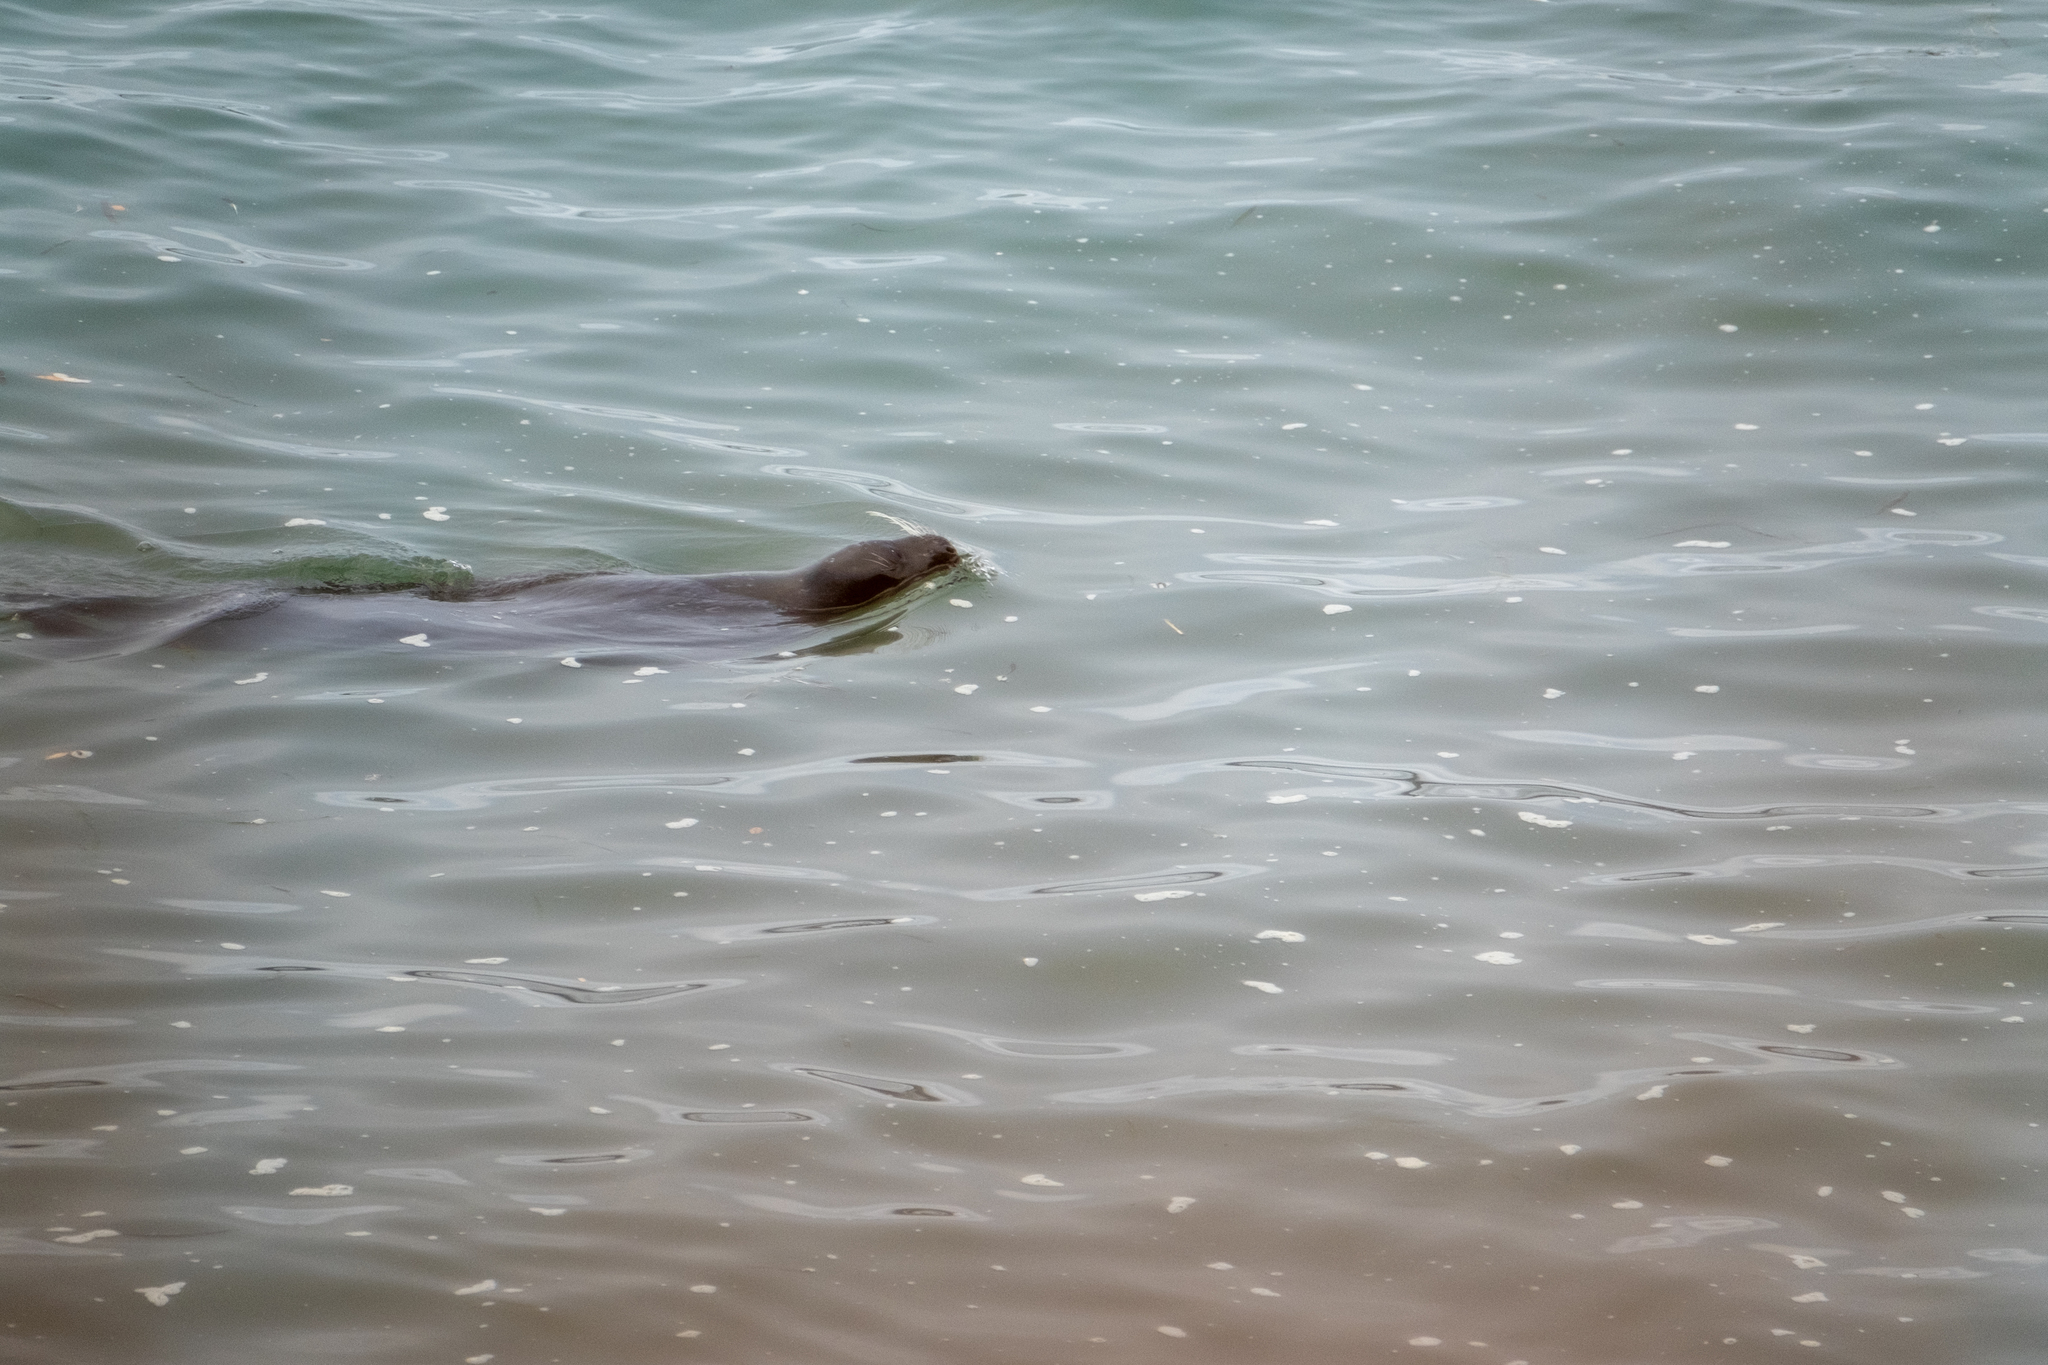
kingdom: Animalia
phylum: Chordata
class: Mammalia
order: Carnivora
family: Phocidae
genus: Phoca
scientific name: Phoca vitulina
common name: Harbor seal
